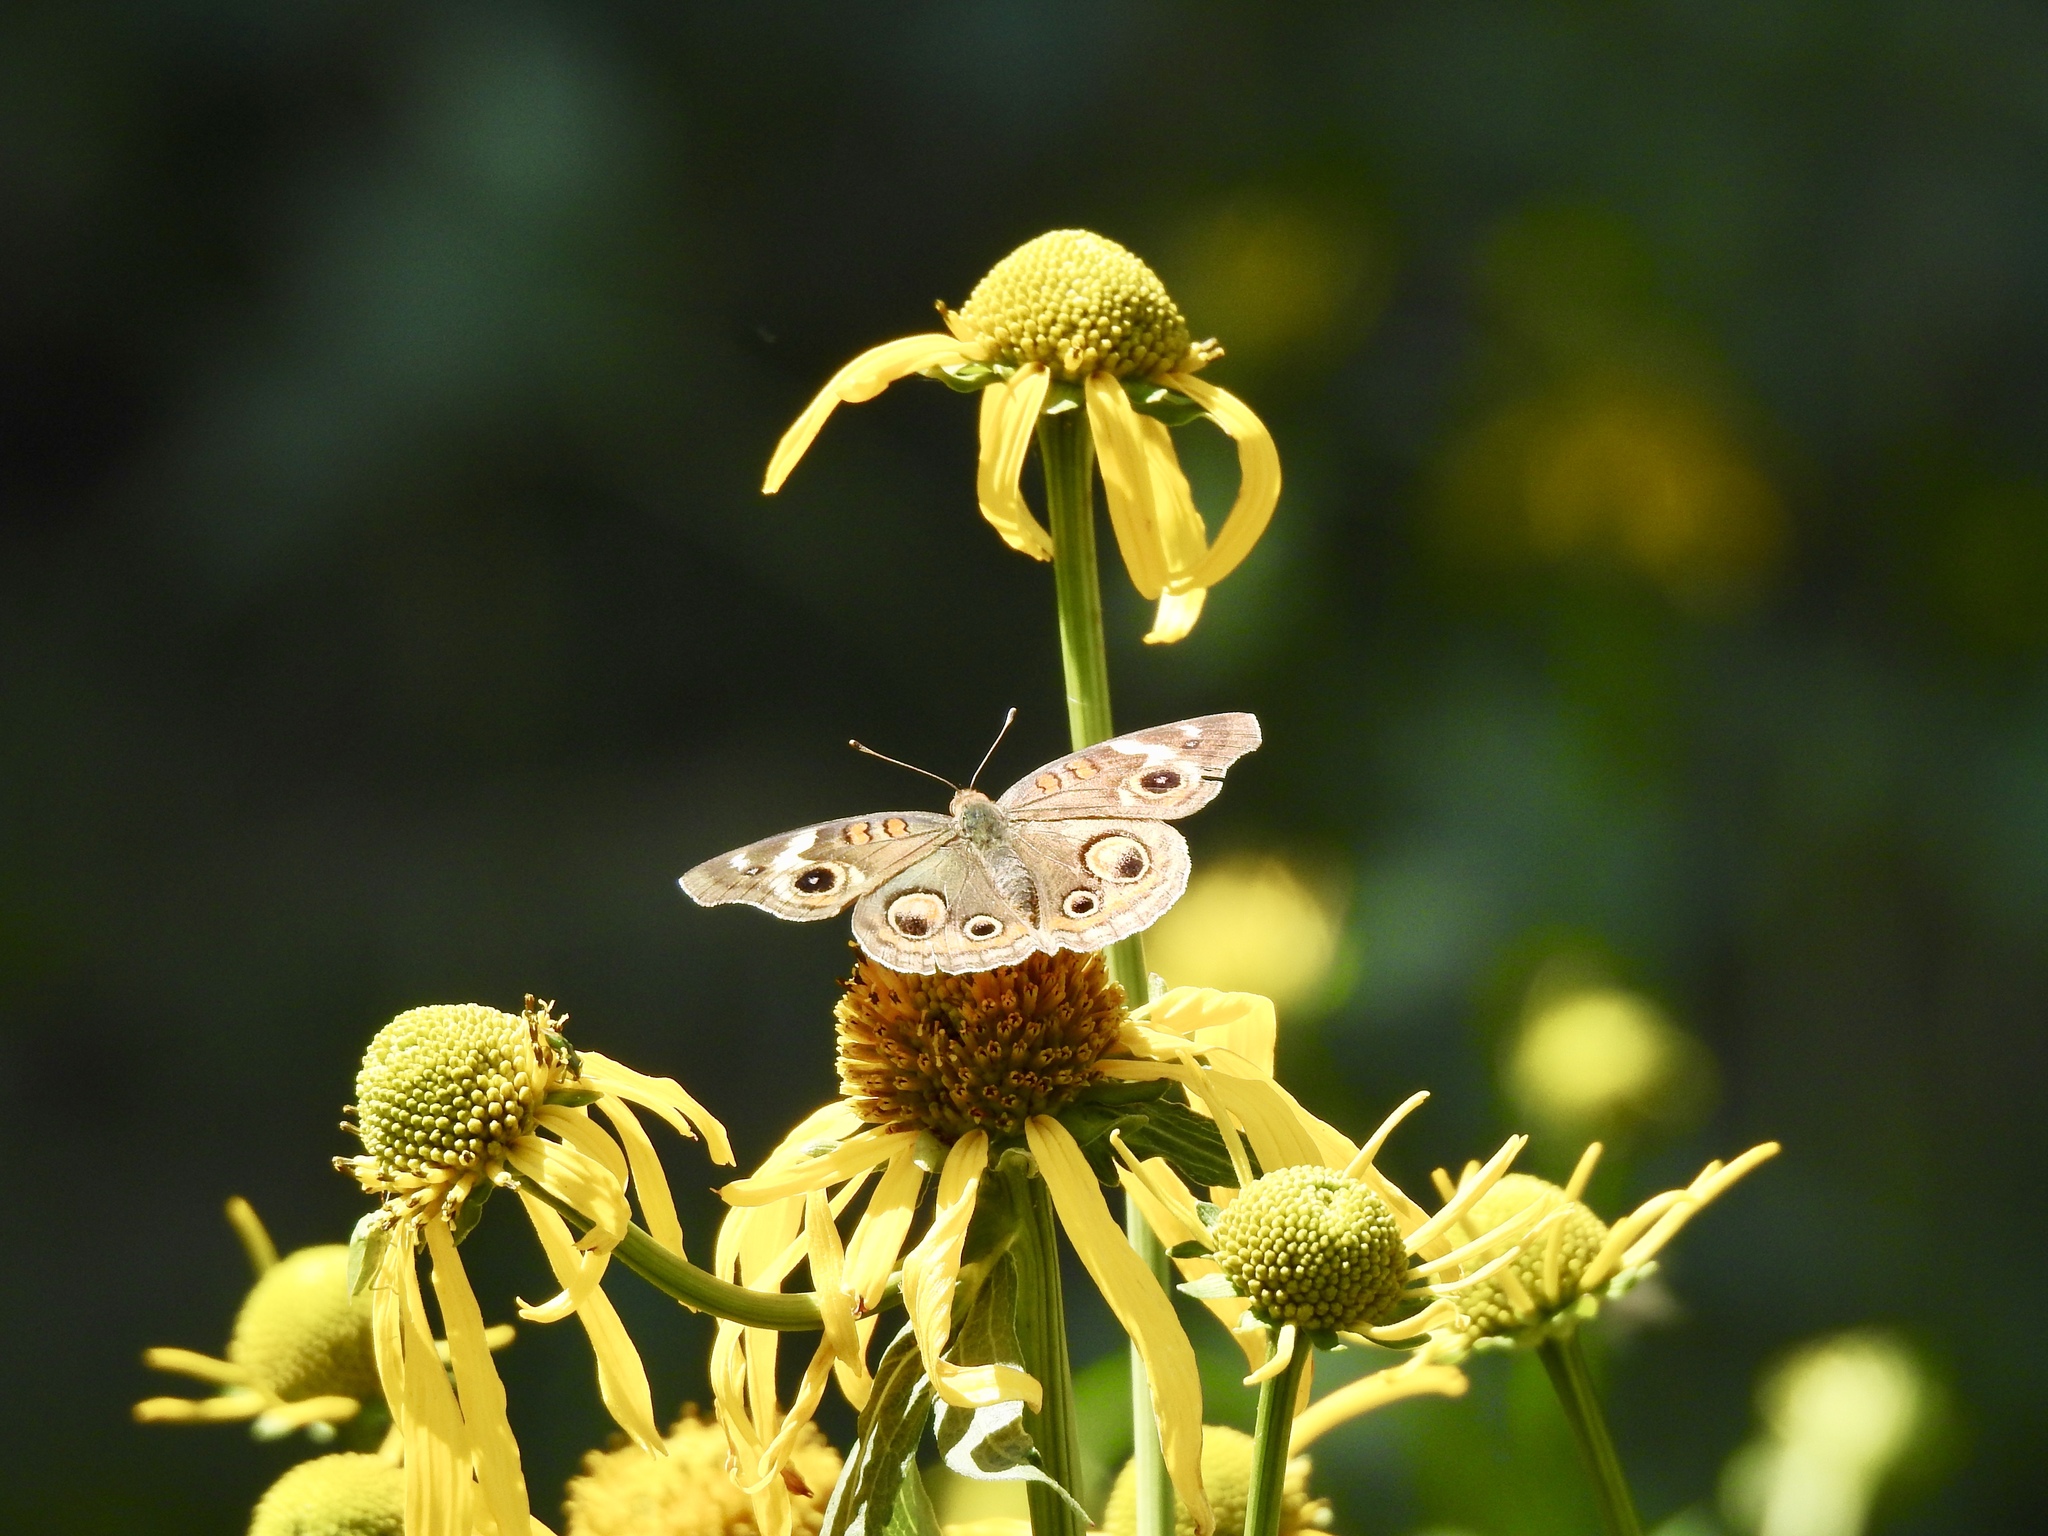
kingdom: Animalia
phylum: Arthropoda
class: Insecta
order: Lepidoptera
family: Nymphalidae
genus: Junonia
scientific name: Junonia grisea
